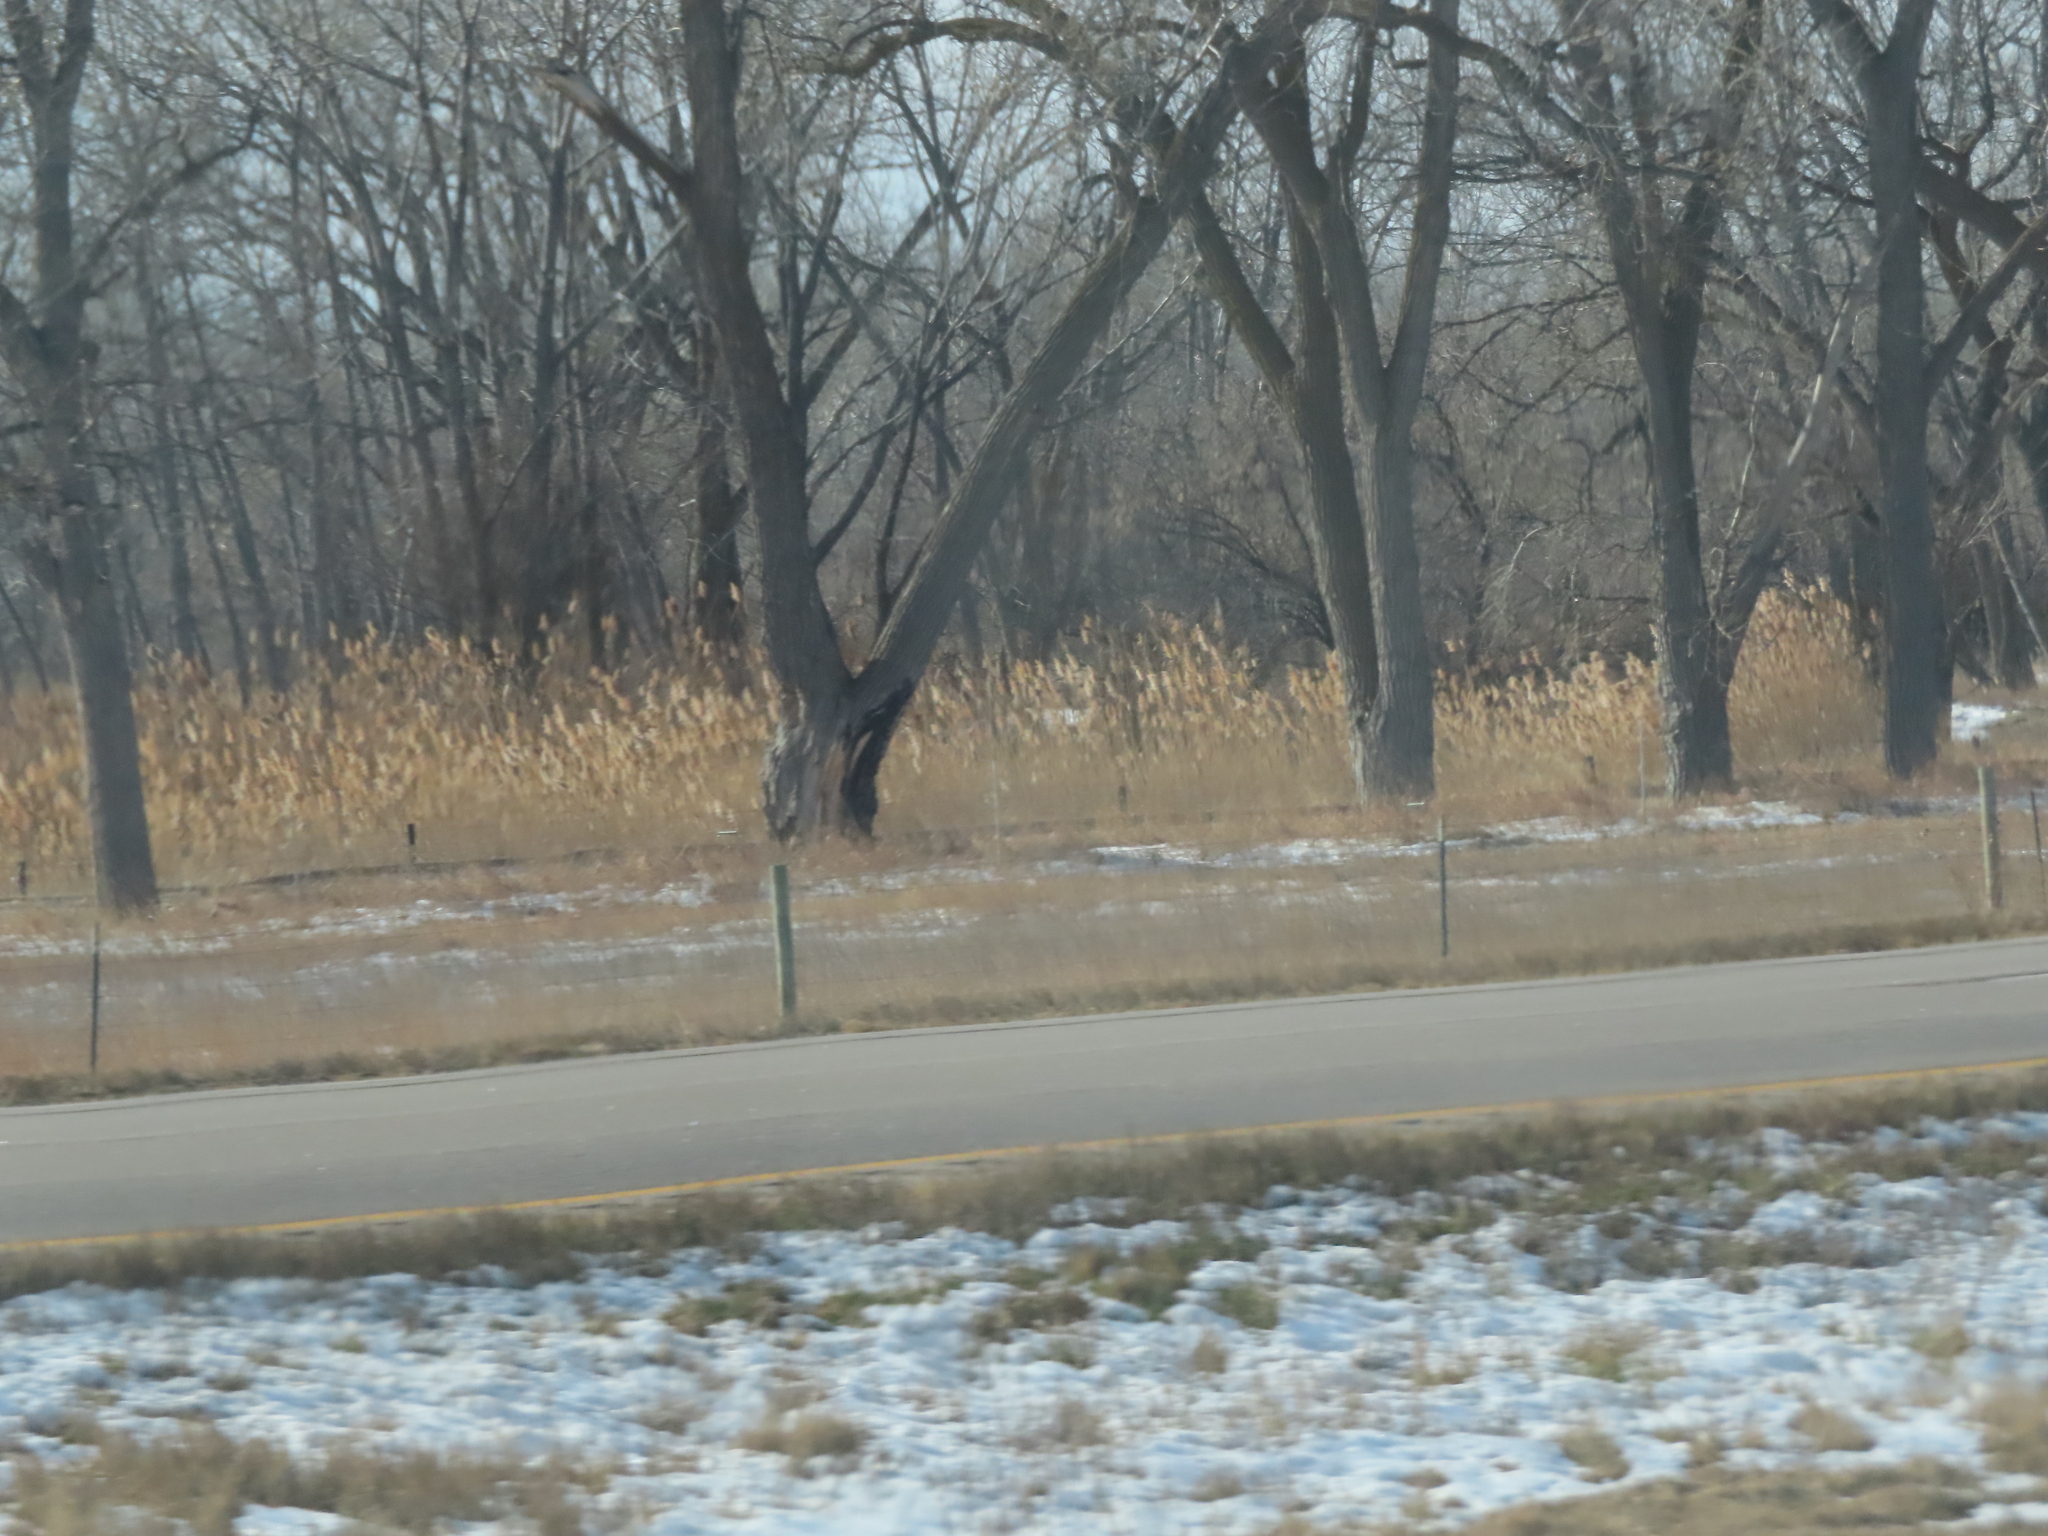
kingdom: Plantae
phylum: Tracheophyta
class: Liliopsida
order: Poales
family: Poaceae
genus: Phragmites
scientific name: Phragmites australis
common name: Common reed
